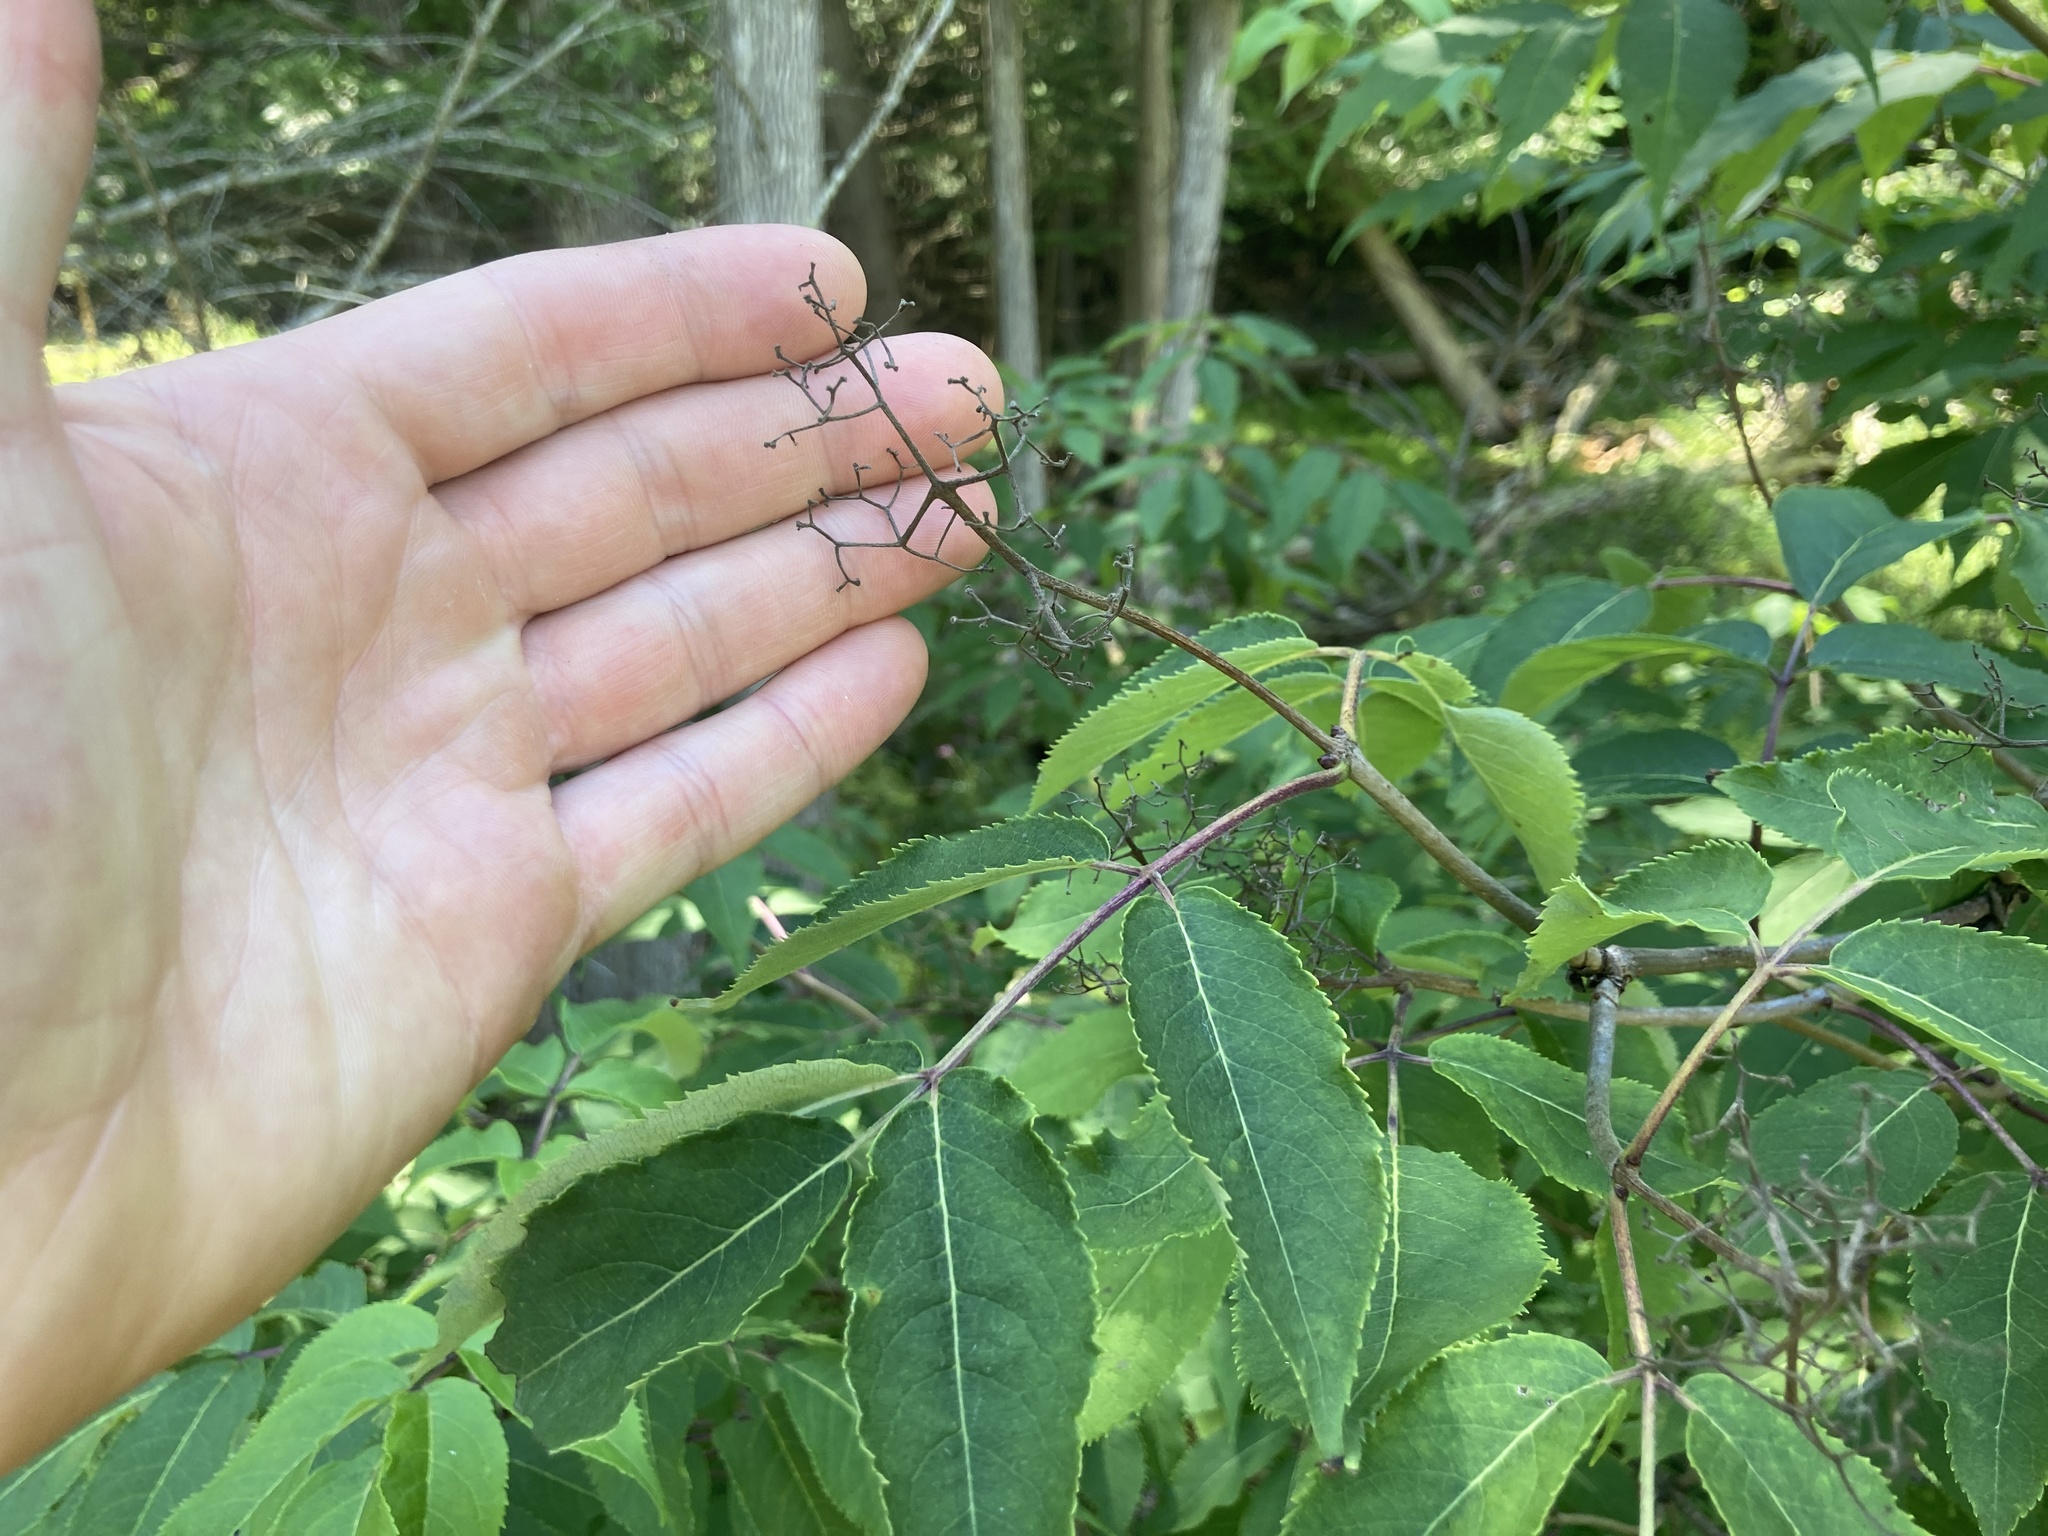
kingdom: Plantae
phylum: Tracheophyta
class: Magnoliopsida
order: Dipsacales
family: Viburnaceae
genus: Sambucus
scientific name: Sambucus racemosa
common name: Red-berried elder
